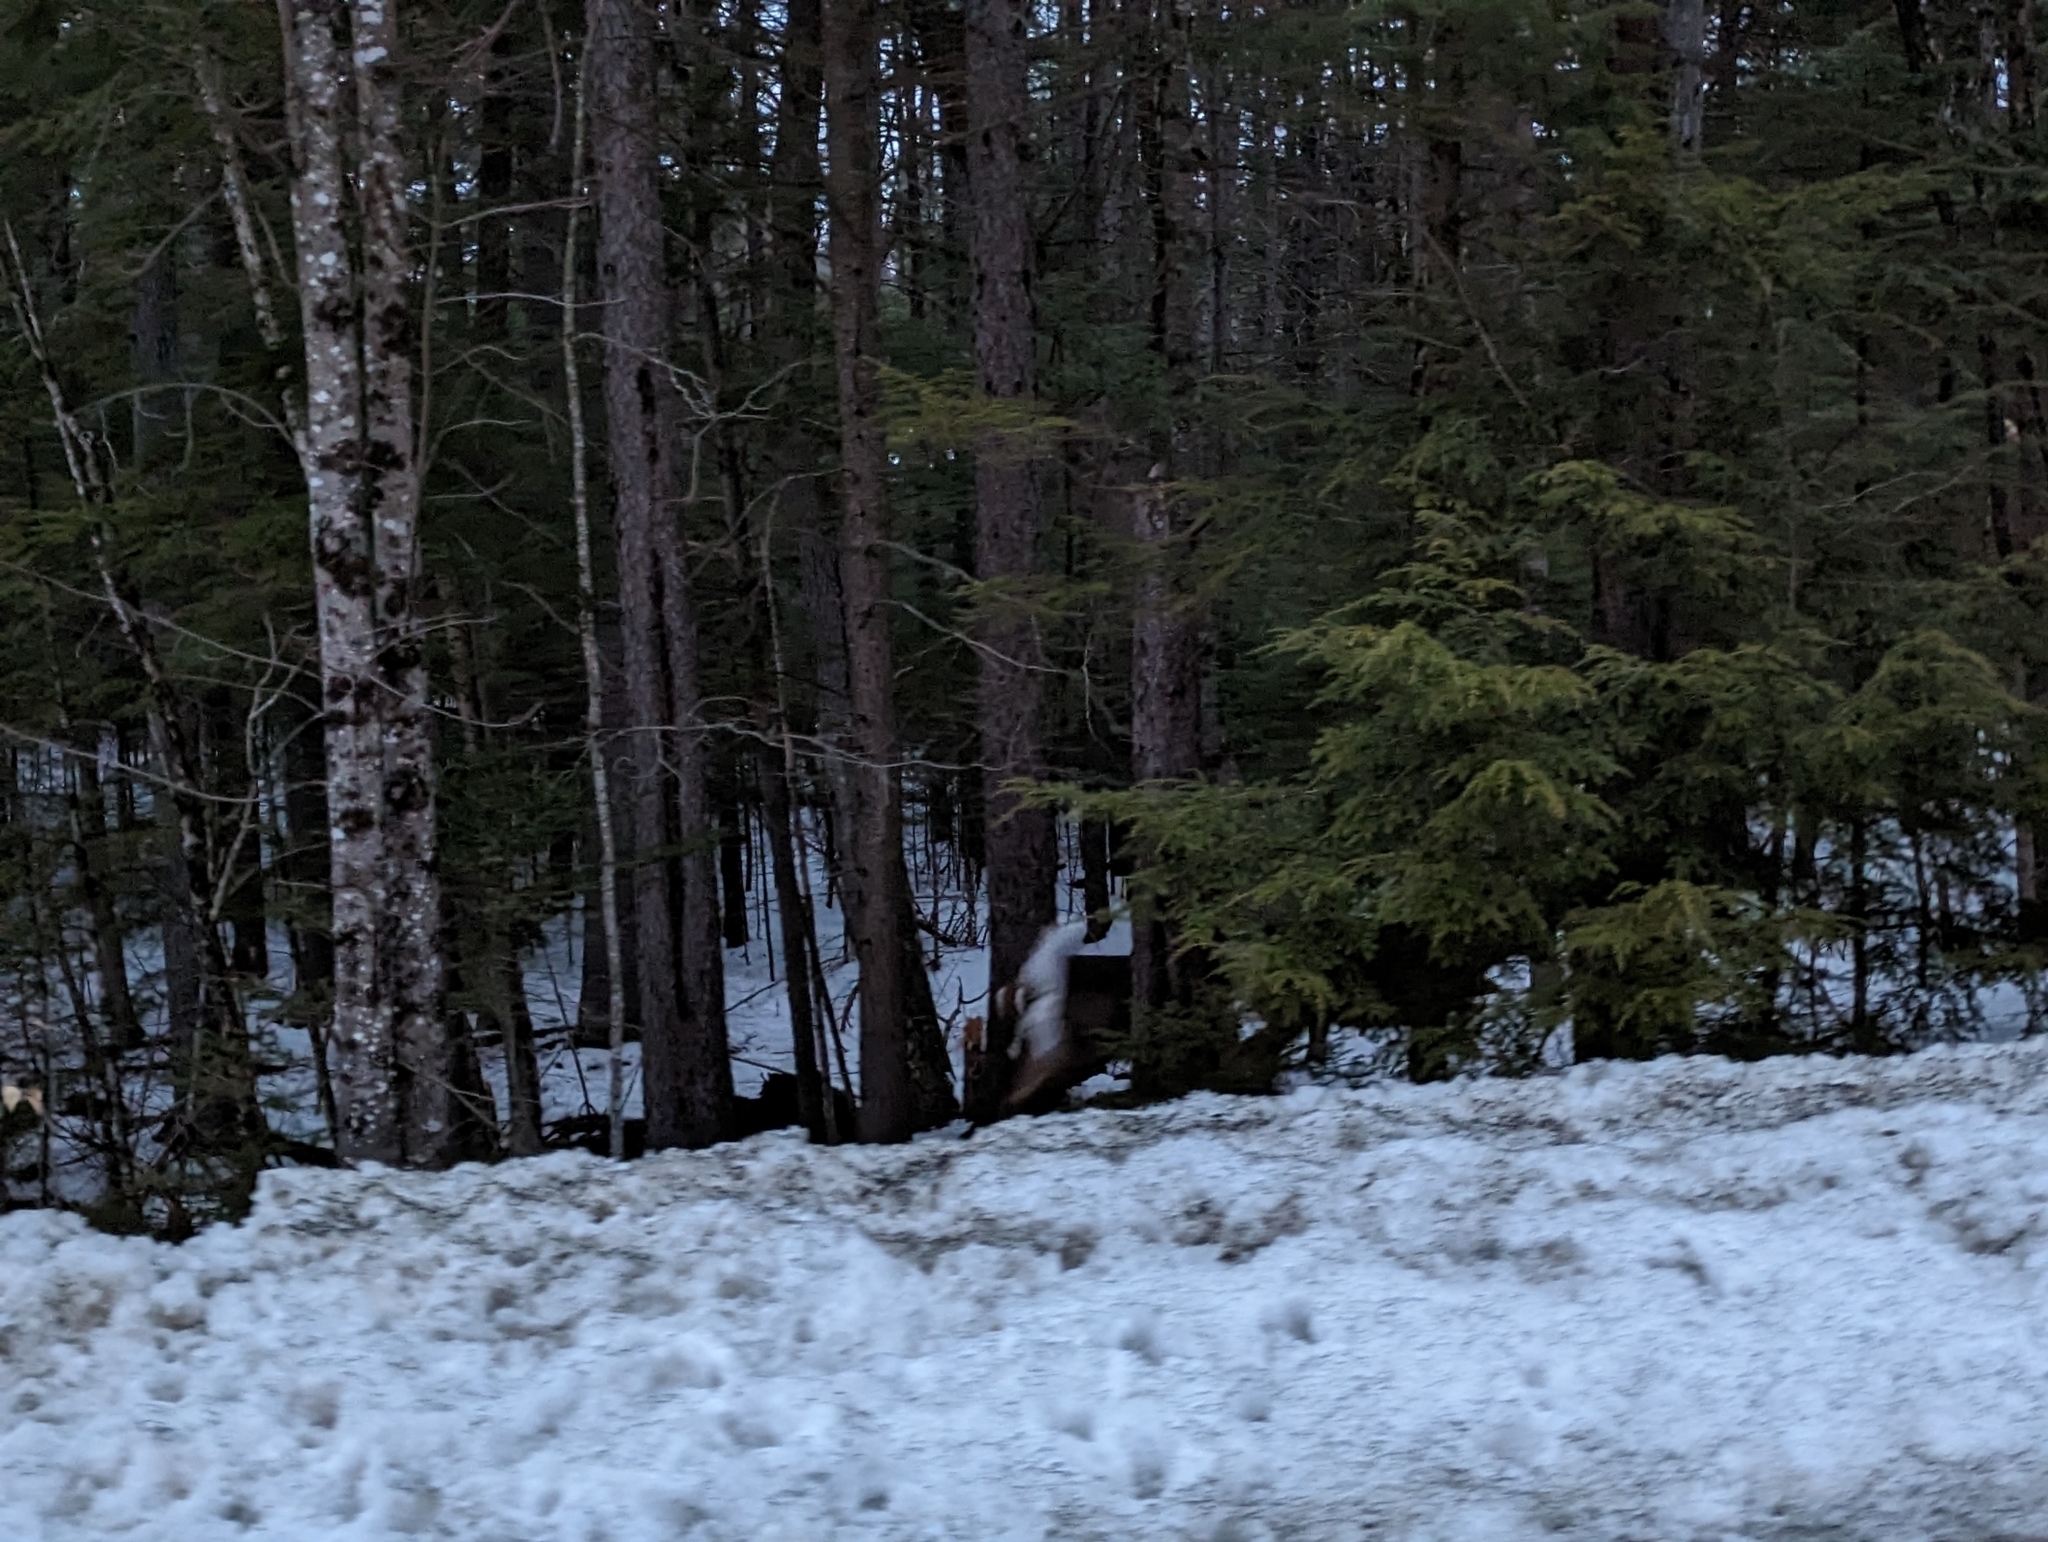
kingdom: Animalia
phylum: Chordata
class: Mammalia
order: Artiodactyla
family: Cervidae
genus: Odocoileus
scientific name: Odocoileus virginianus
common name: White-tailed deer
